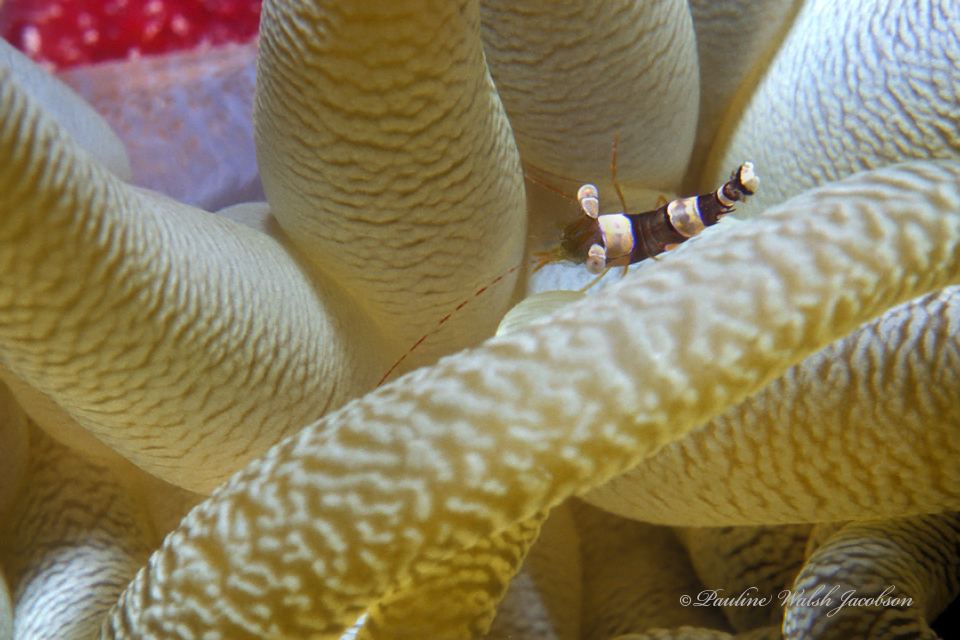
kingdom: Animalia
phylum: Arthropoda
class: Malacostraca
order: Decapoda
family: Thoridae
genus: Thor
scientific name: Thor dicaprio
